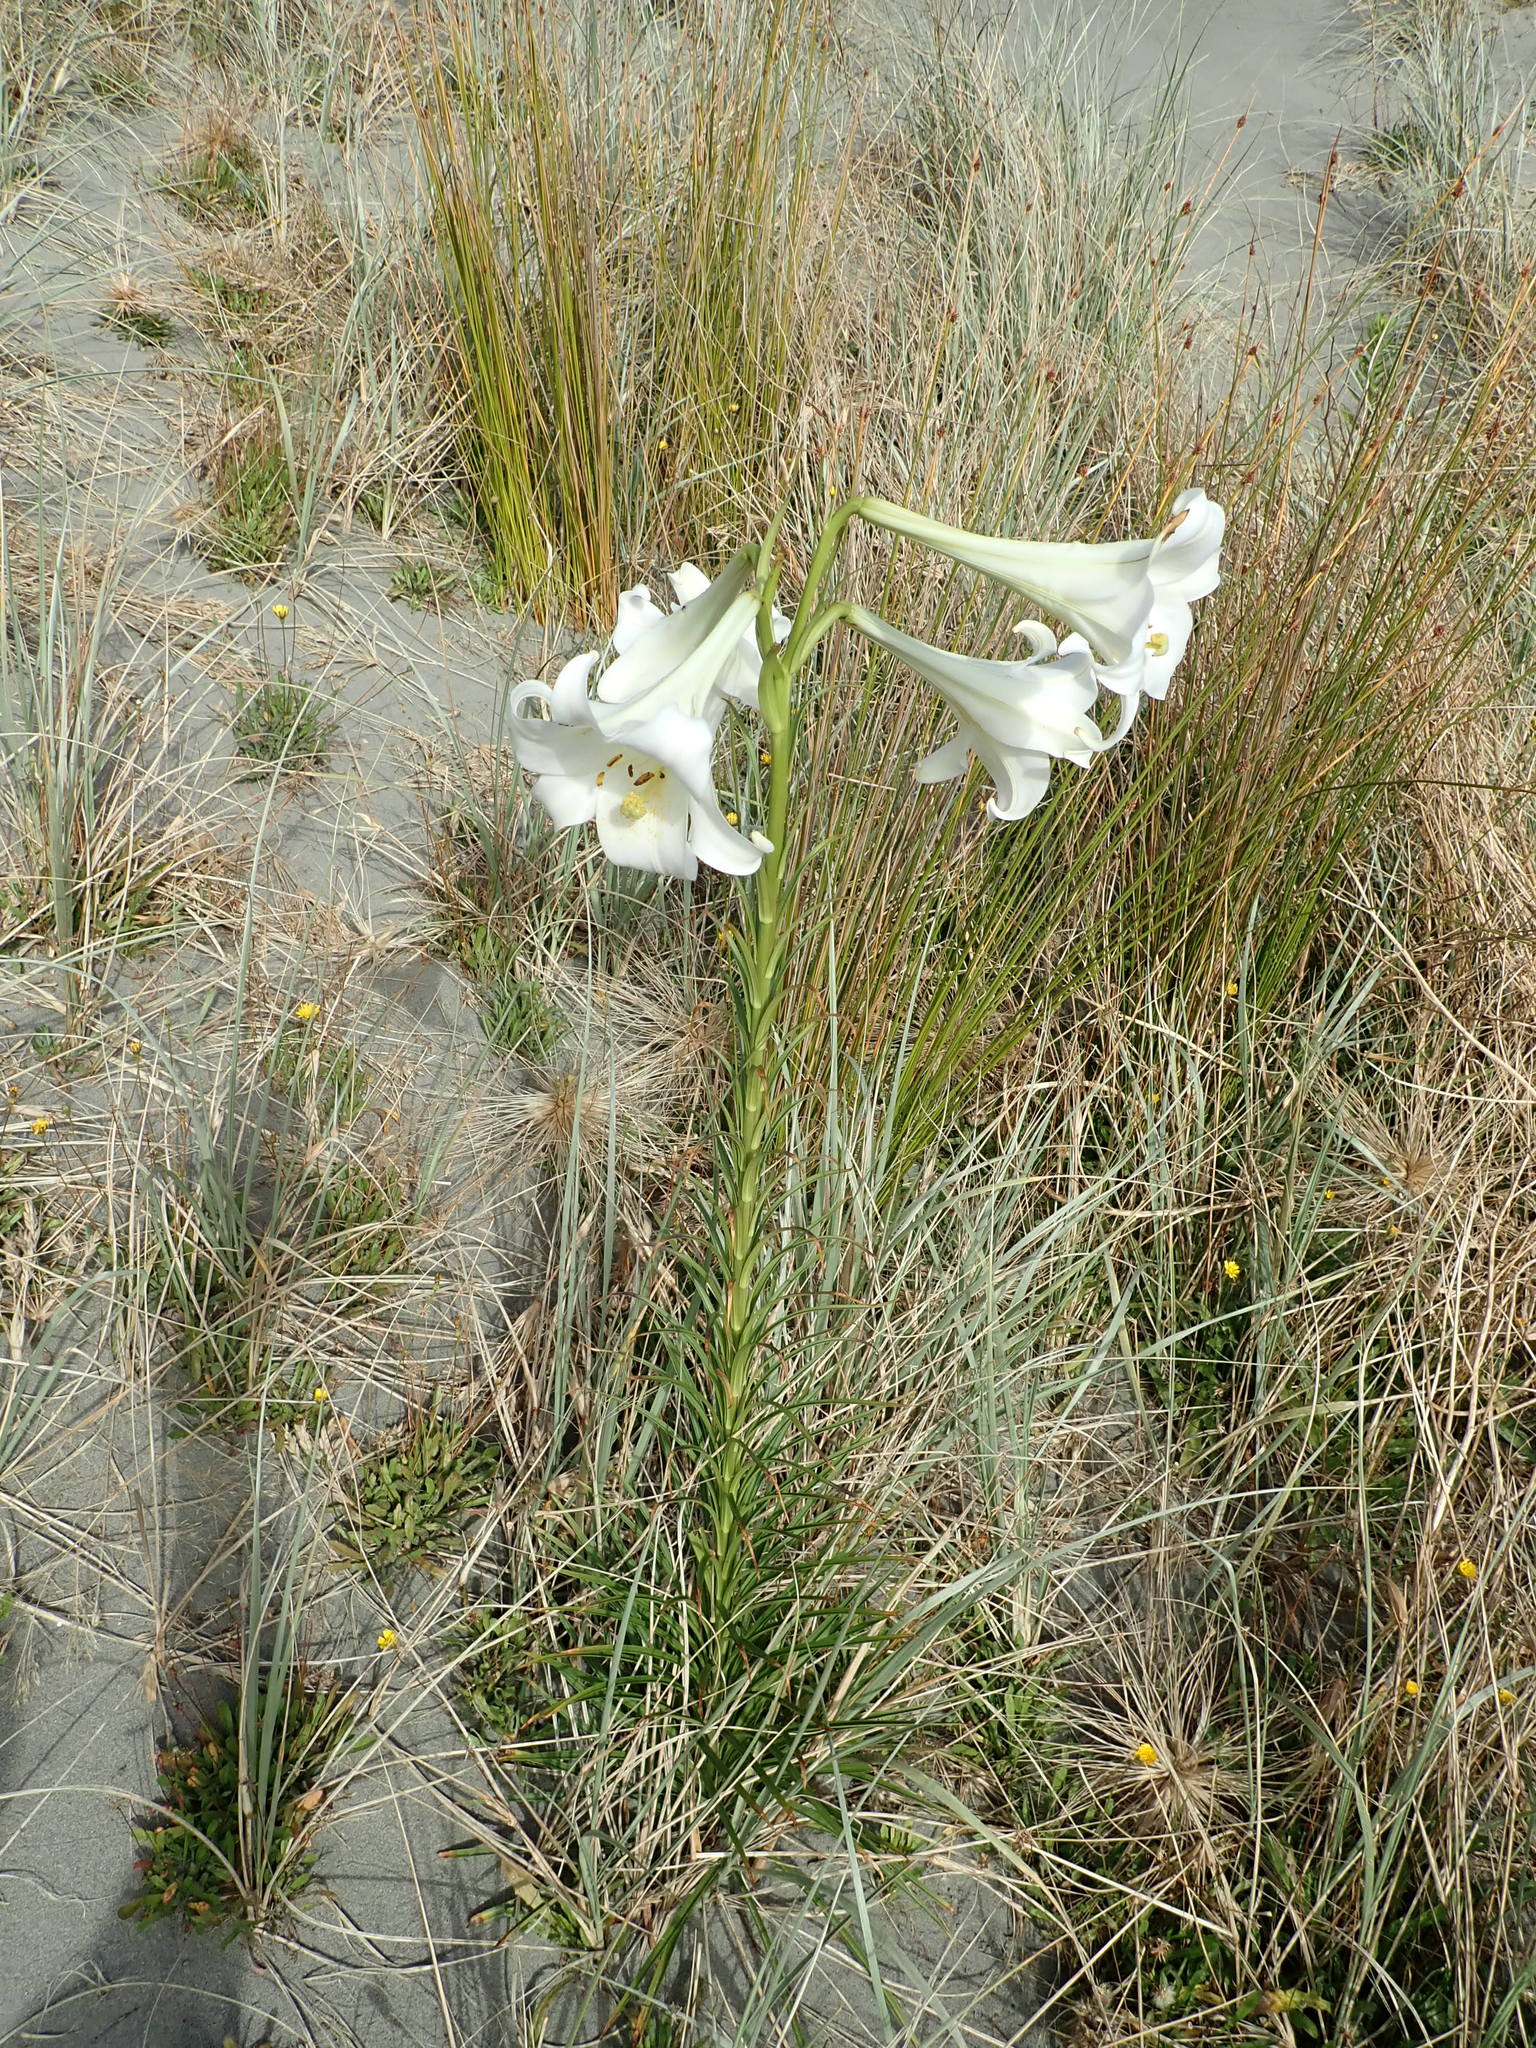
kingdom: Plantae
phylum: Tracheophyta
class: Liliopsida
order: Liliales
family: Liliaceae
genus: Lilium
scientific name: Lilium formosanum
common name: Formosa lily
